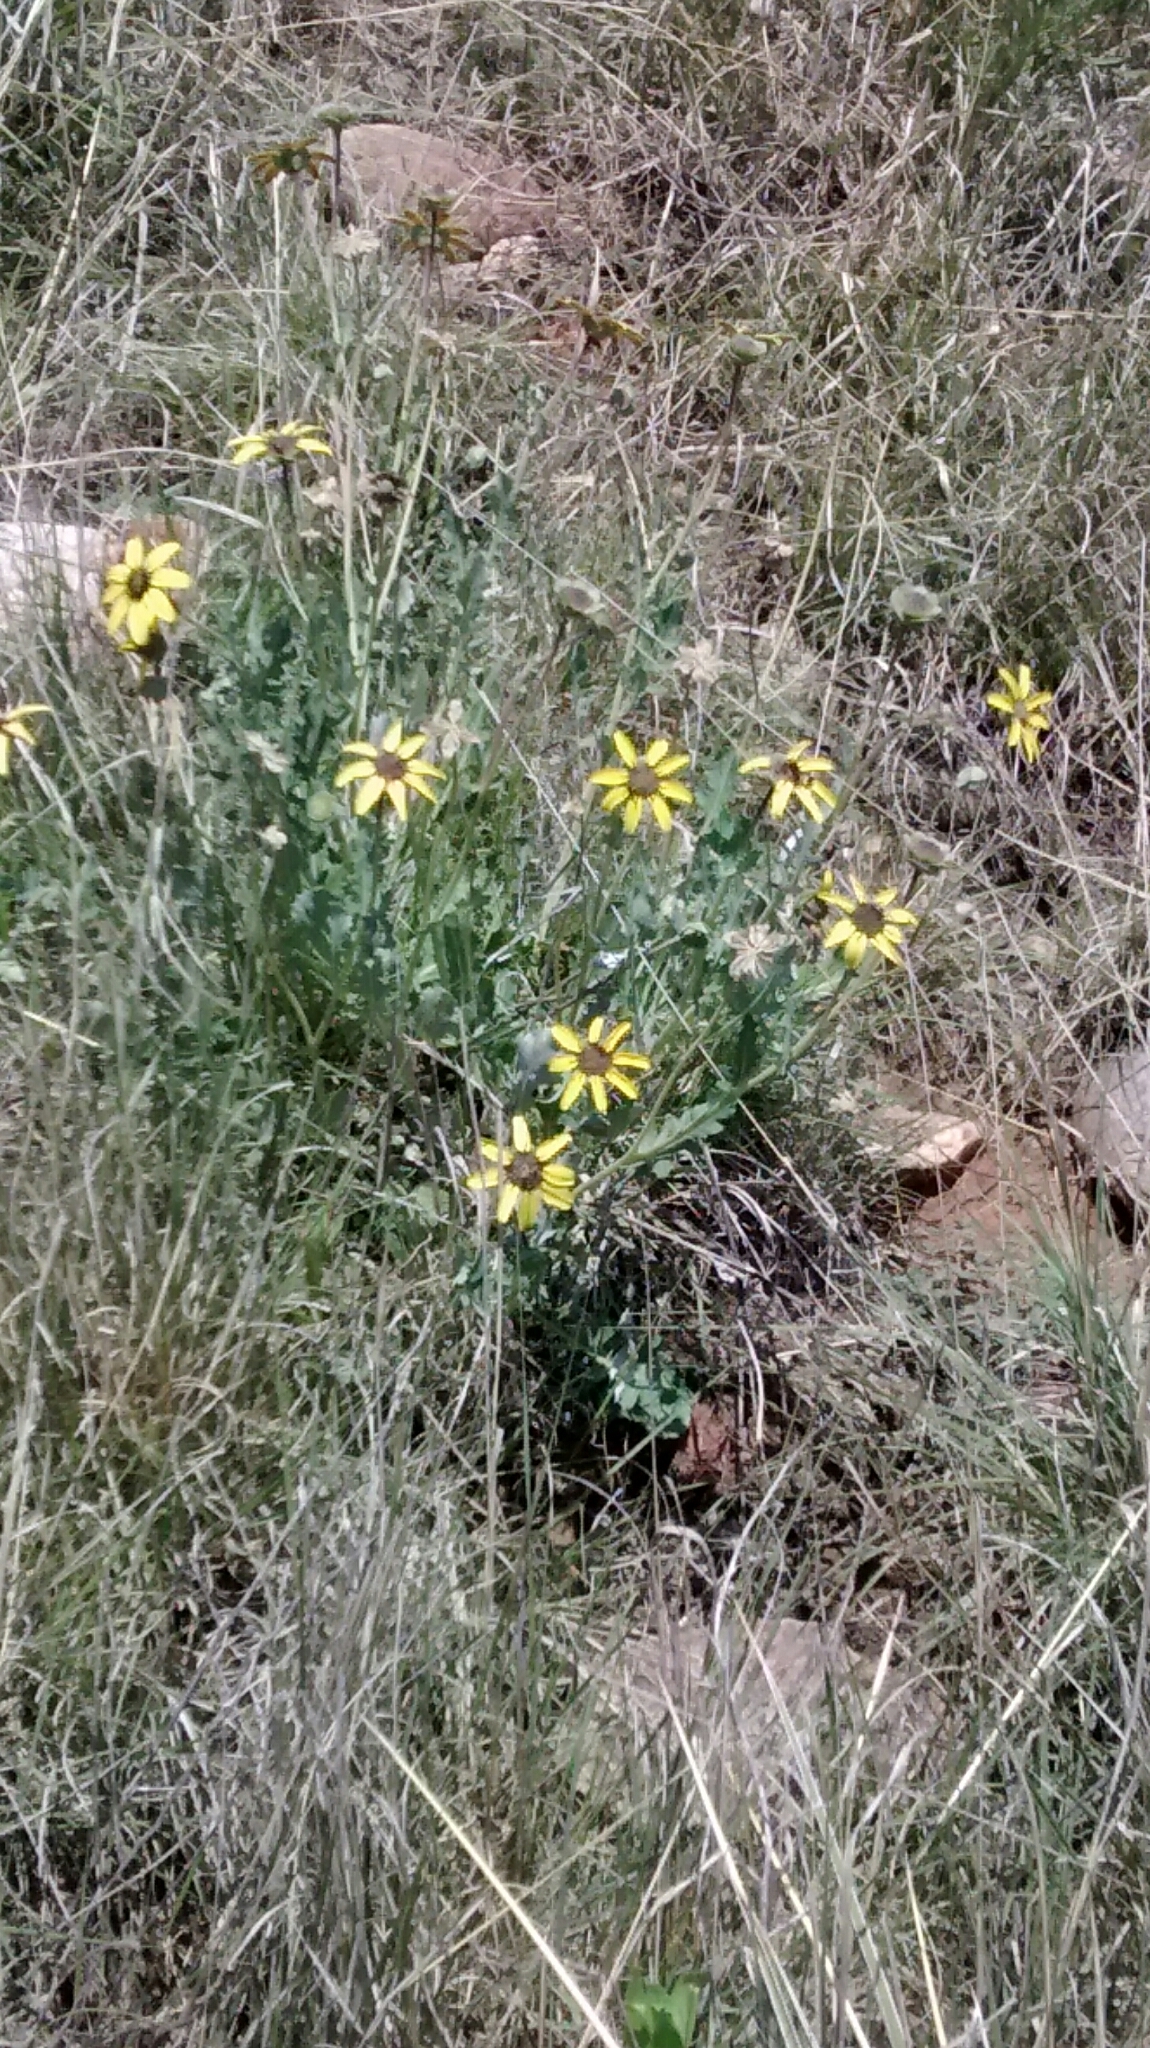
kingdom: Plantae
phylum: Tracheophyta
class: Magnoliopsida
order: Asterales
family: Asteraceae
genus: Berlandiera
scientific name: Berlandiera lyrata
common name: Chocolate-flower
